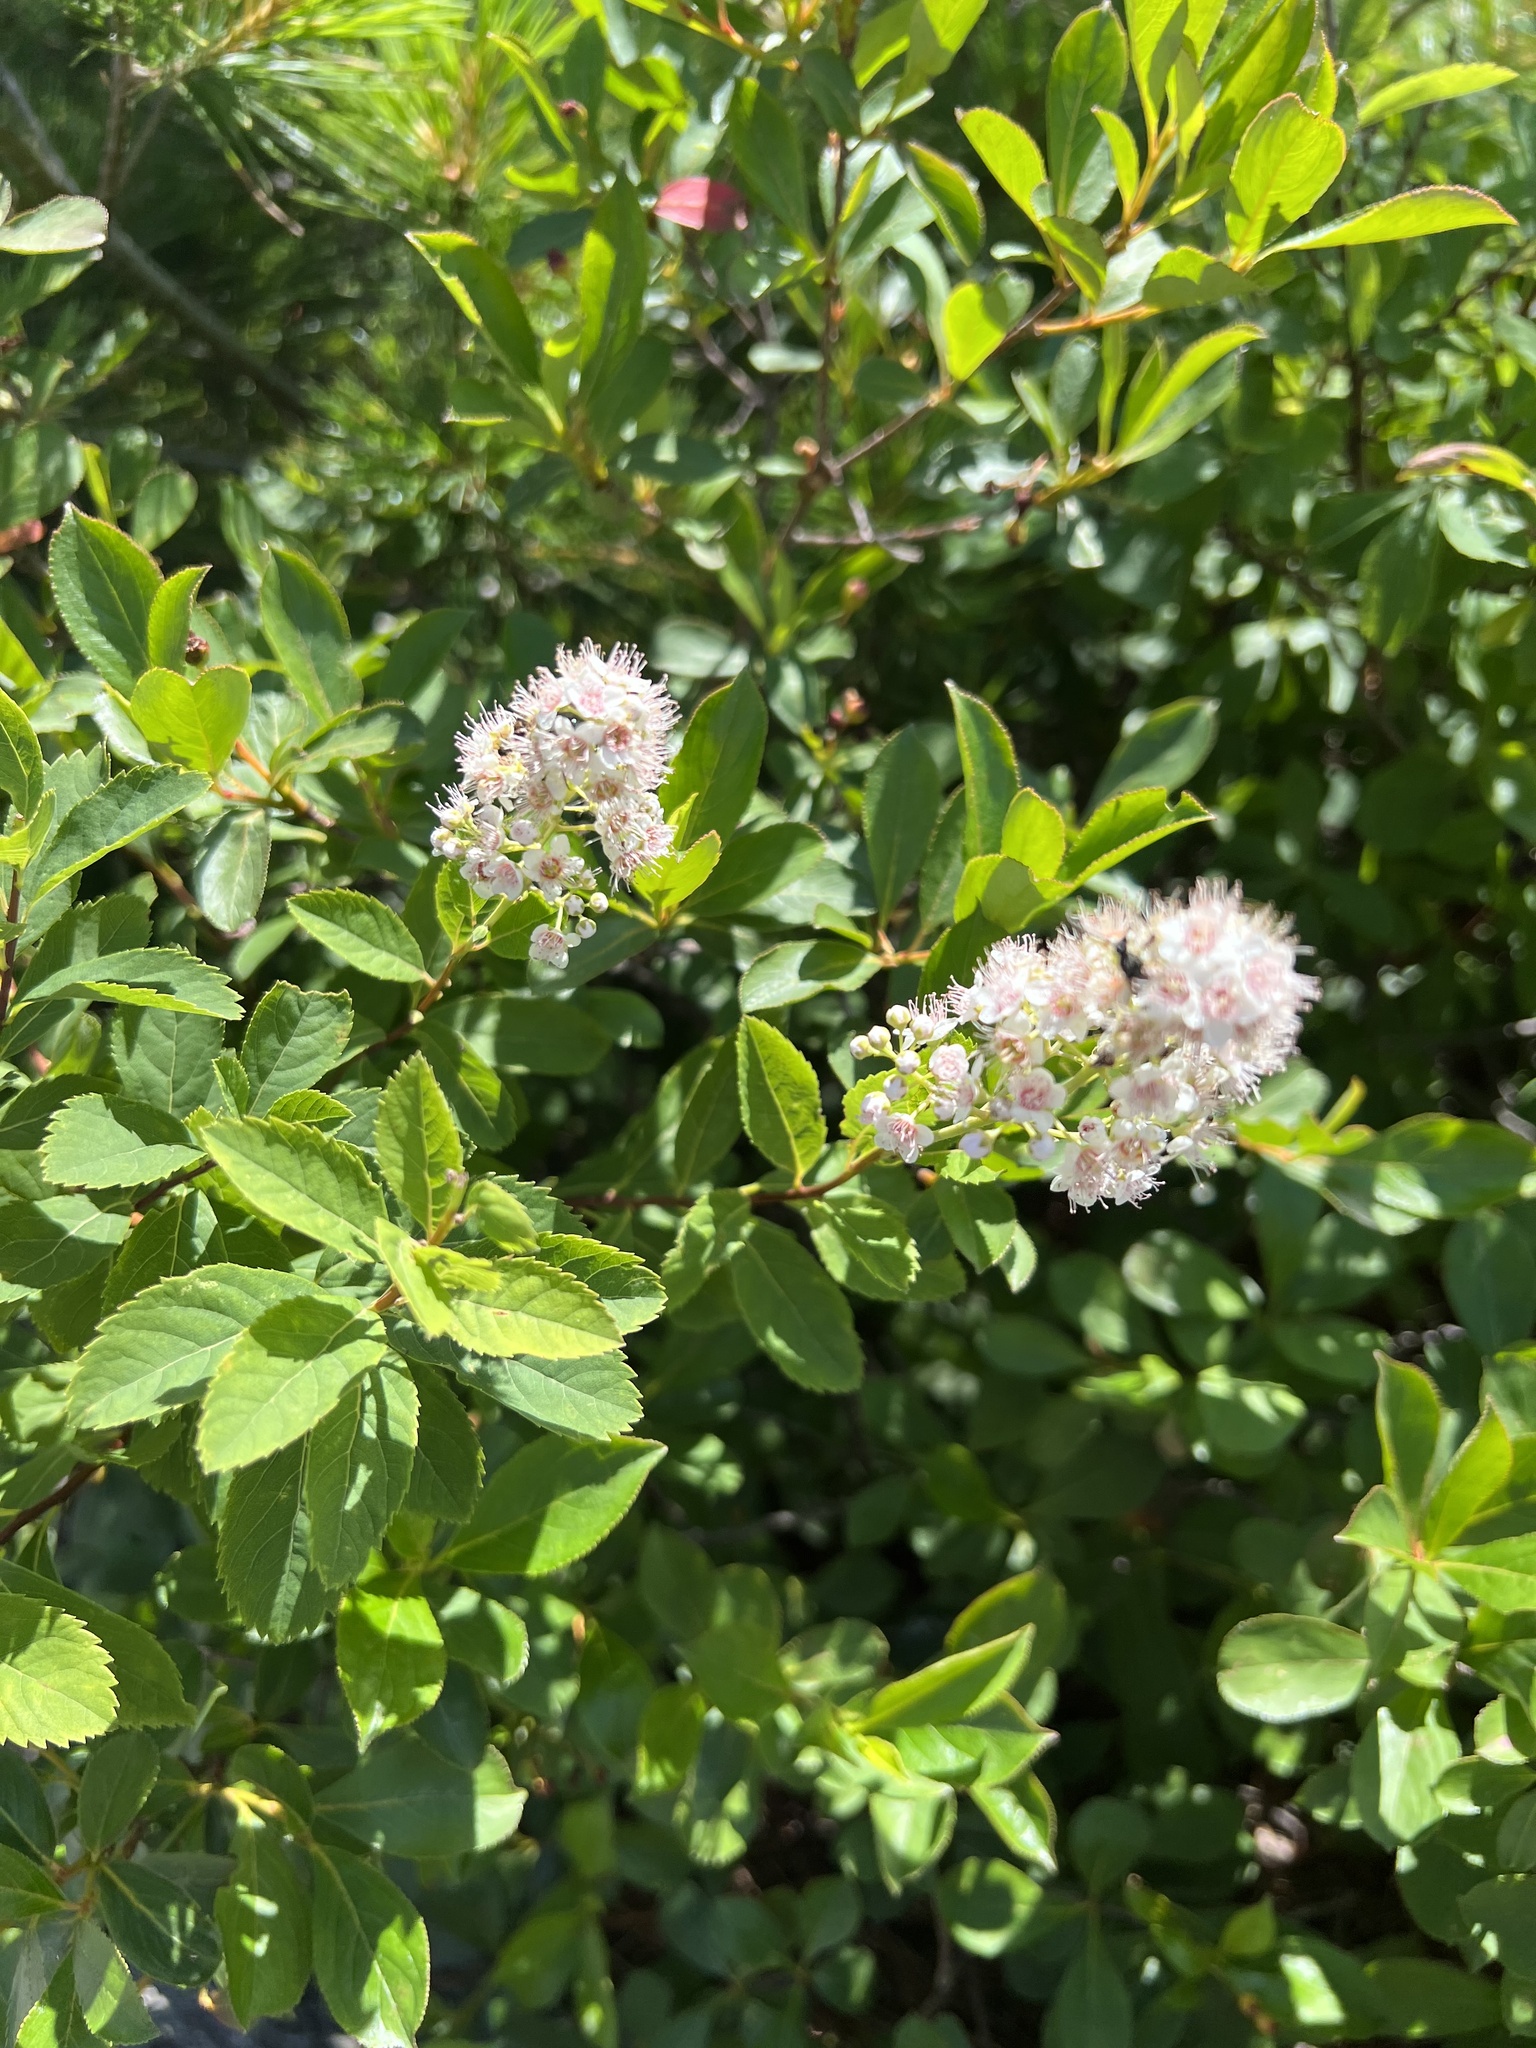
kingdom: Plantae
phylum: Tracheophyta
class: Magnoliopsida
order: Rosales
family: Rosaceae
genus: Spiraea
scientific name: Spiraea alba
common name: Pale bridewort
